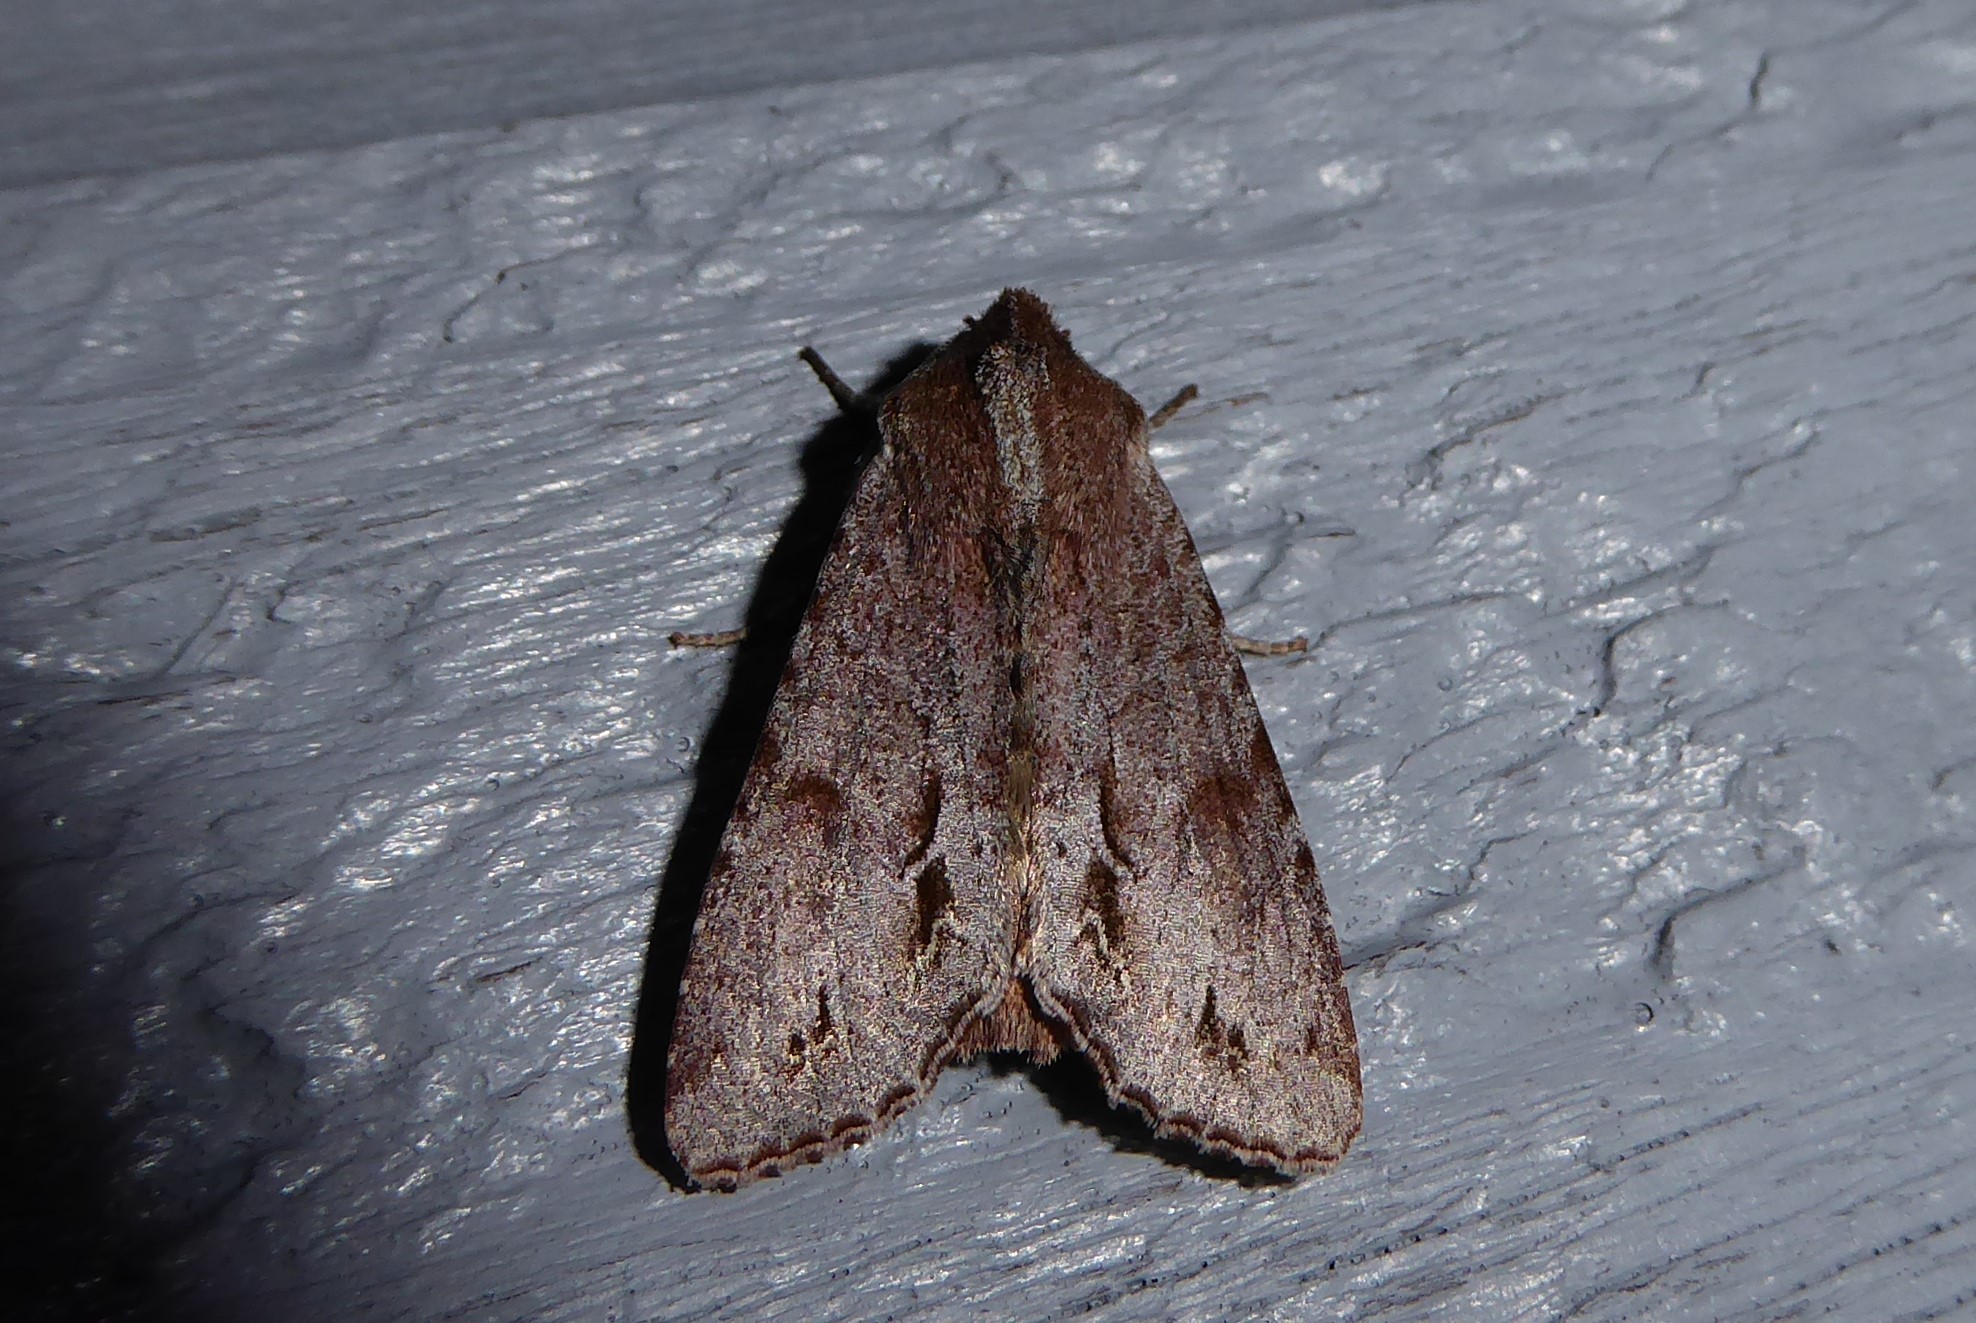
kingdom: Animalia
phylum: Arthropoda
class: Insecta
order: Lepidoptera
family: Noctuidae
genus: Ichneutica
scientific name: Ichneutica
